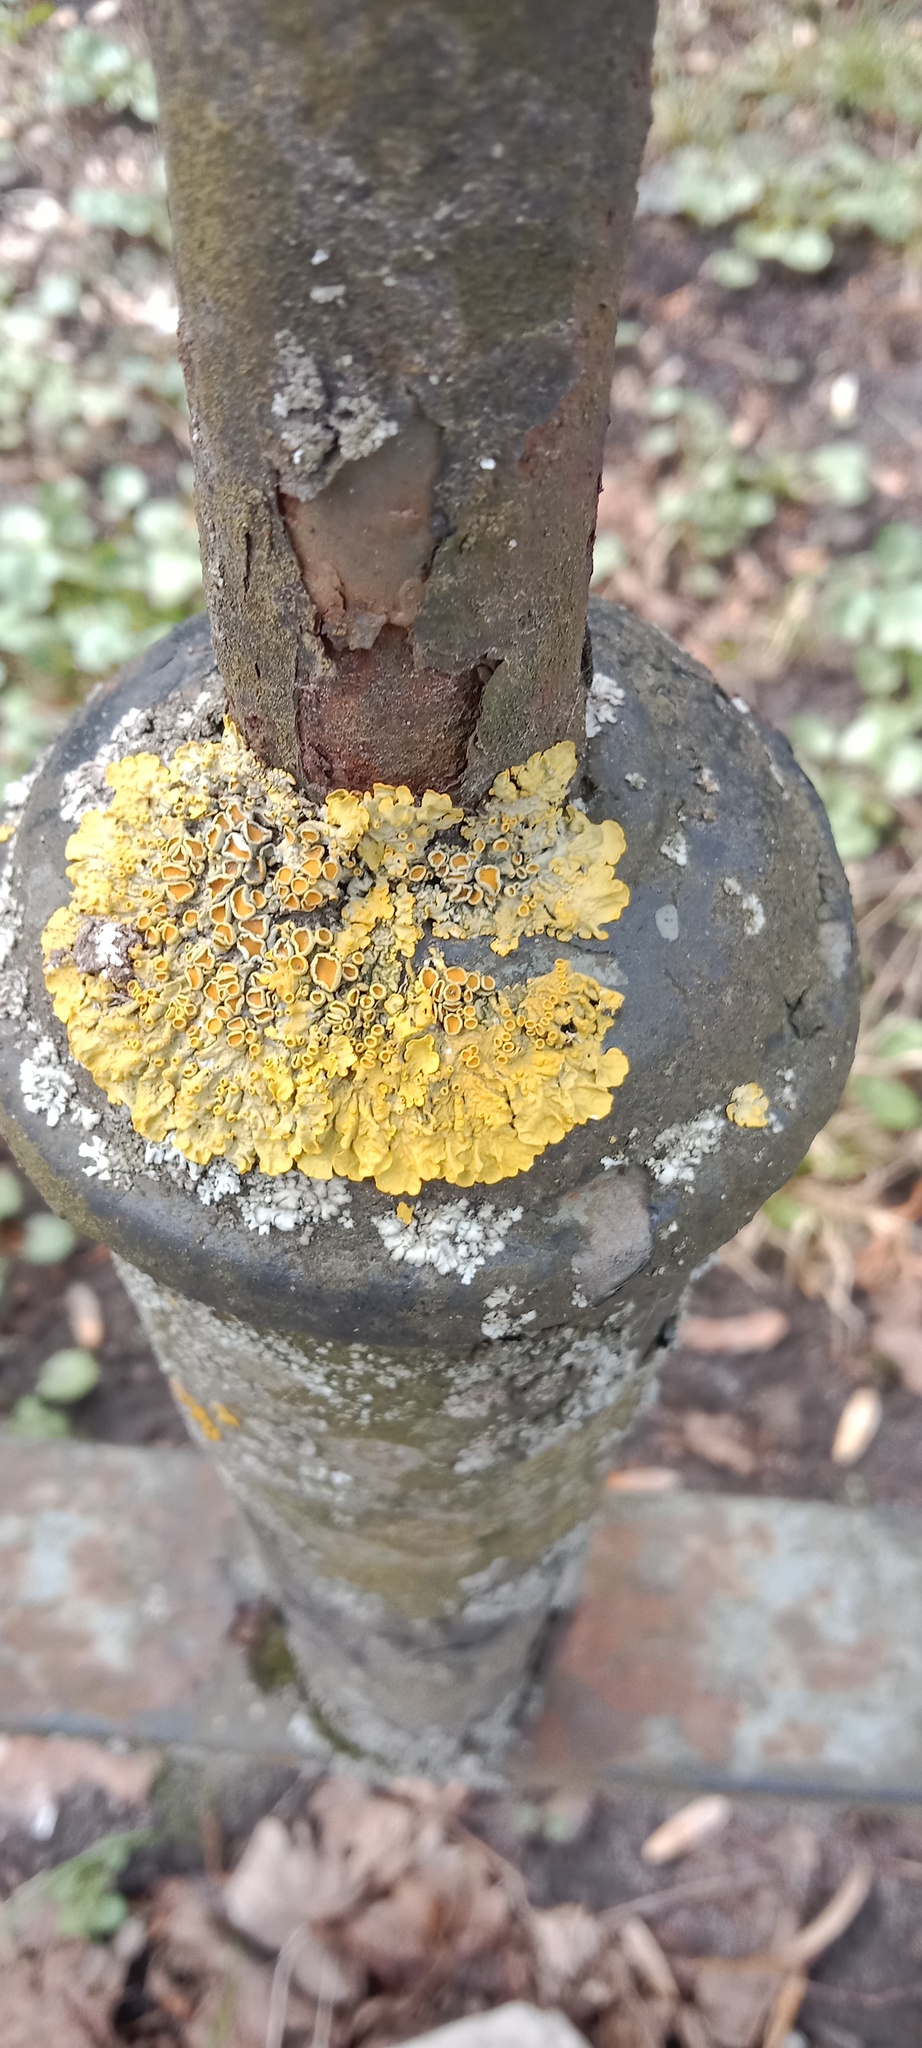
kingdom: Fungi
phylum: Ascomycota
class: Lecanoromycetes
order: Teloschistales
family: Teloschistaceae
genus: Xanthoria
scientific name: Xanthoria parietina
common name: Common orange lichen
